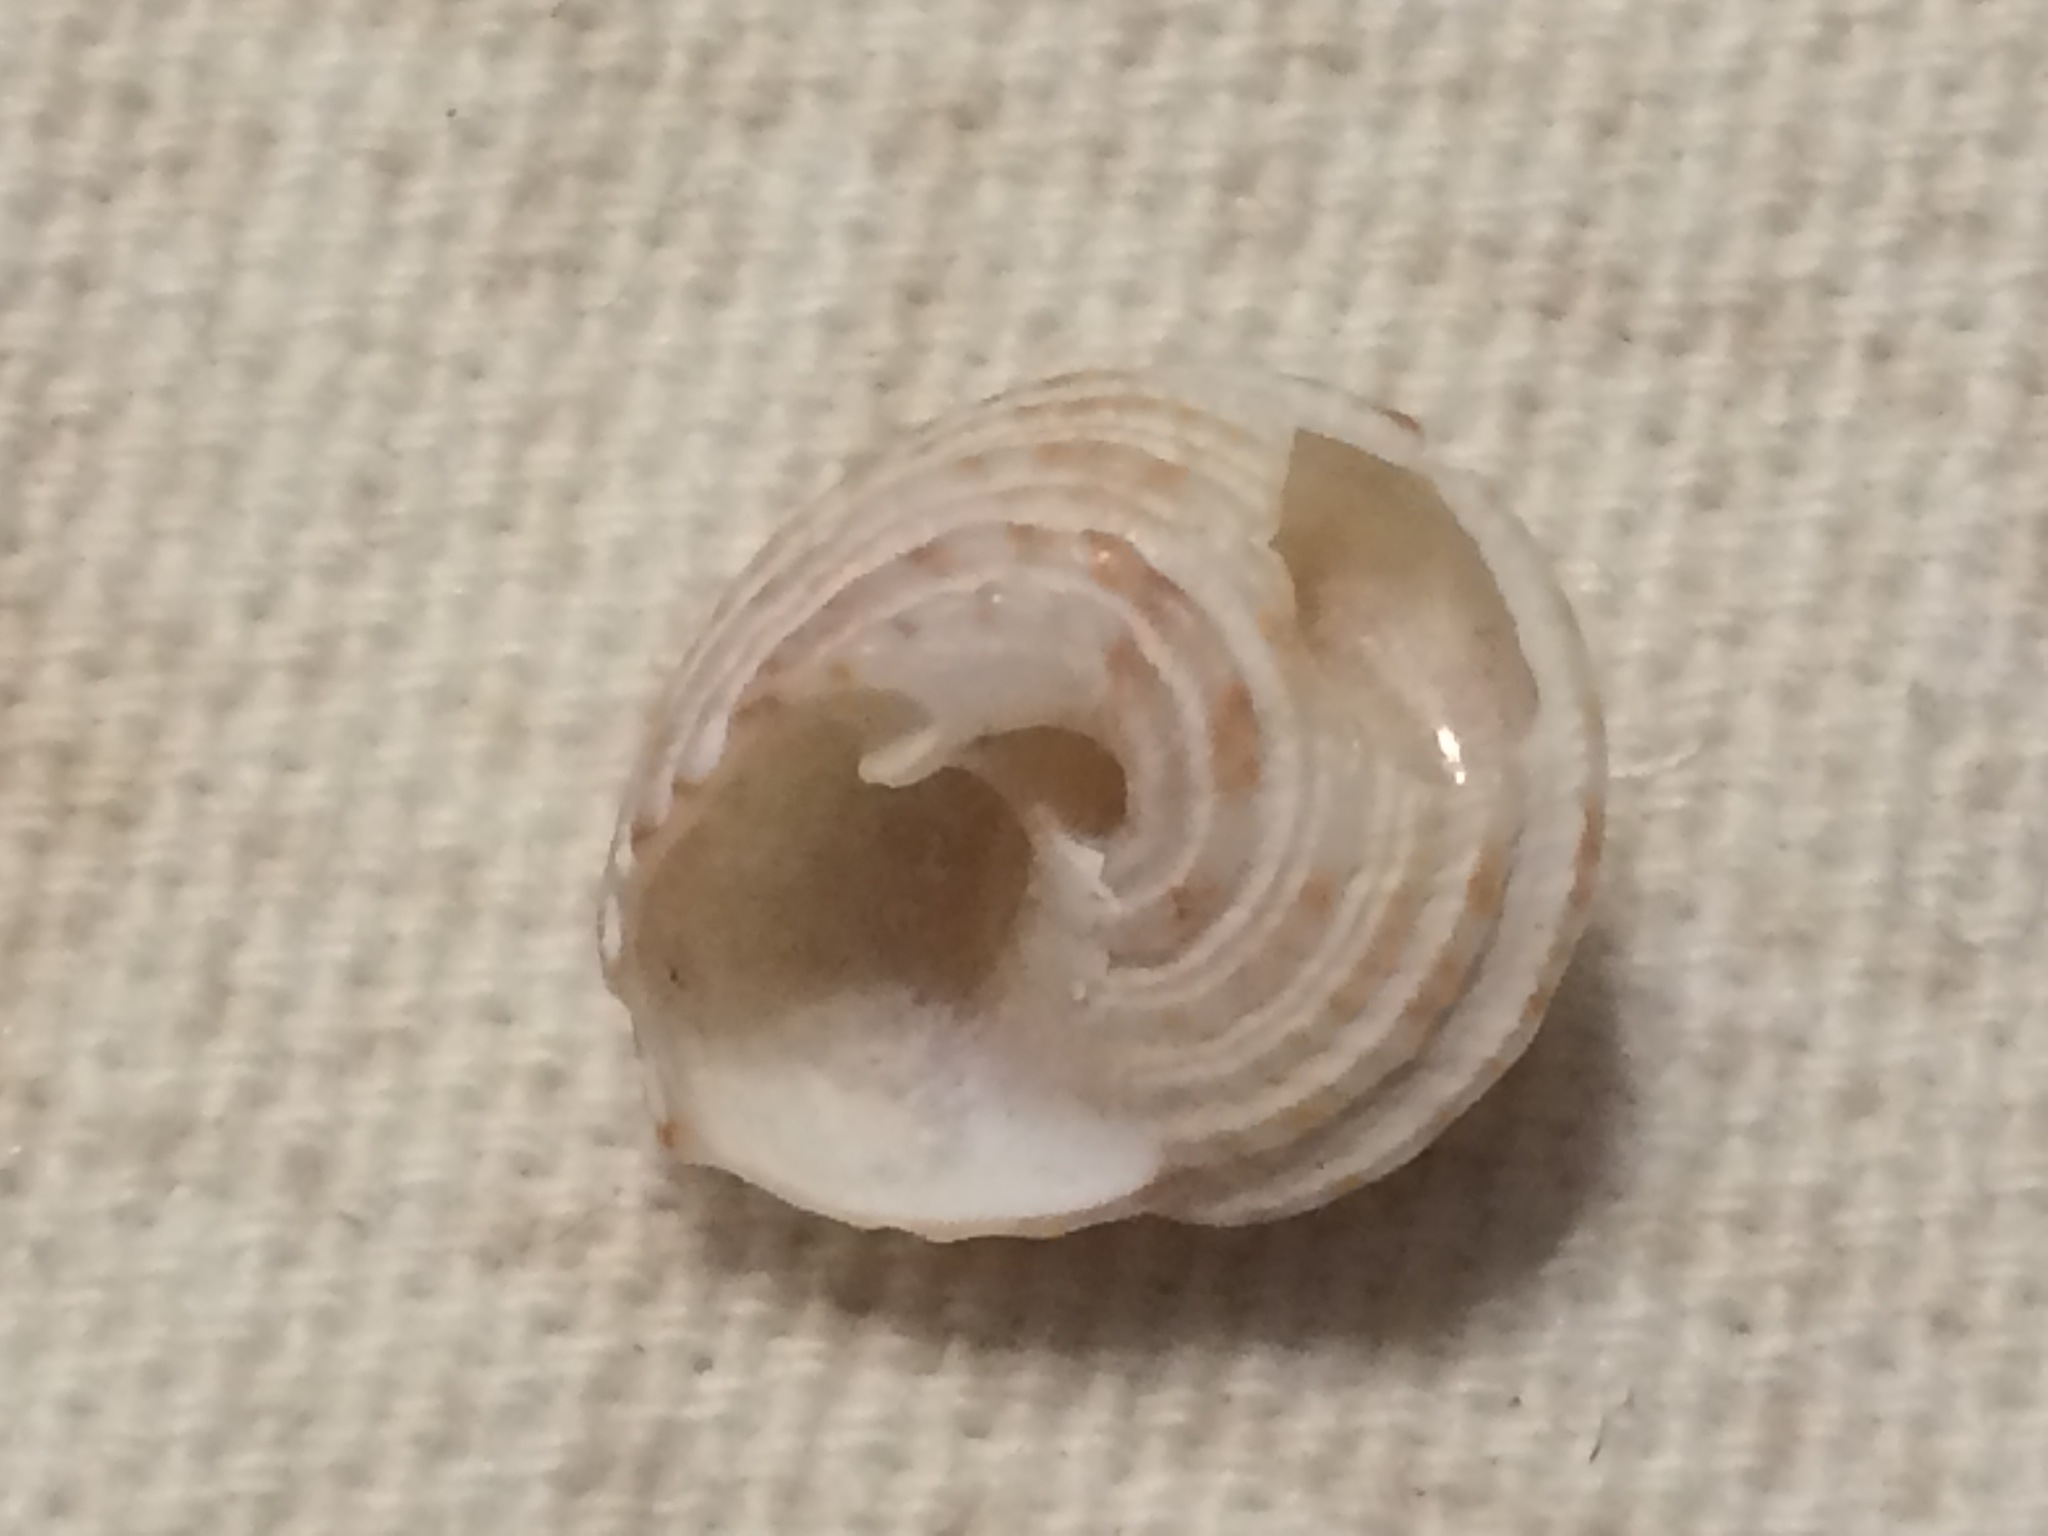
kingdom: Animalia
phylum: Mollusca
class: Gastropoda
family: Modulidae
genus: Modulus
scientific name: Modulus modulus
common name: Atlantic modulus
